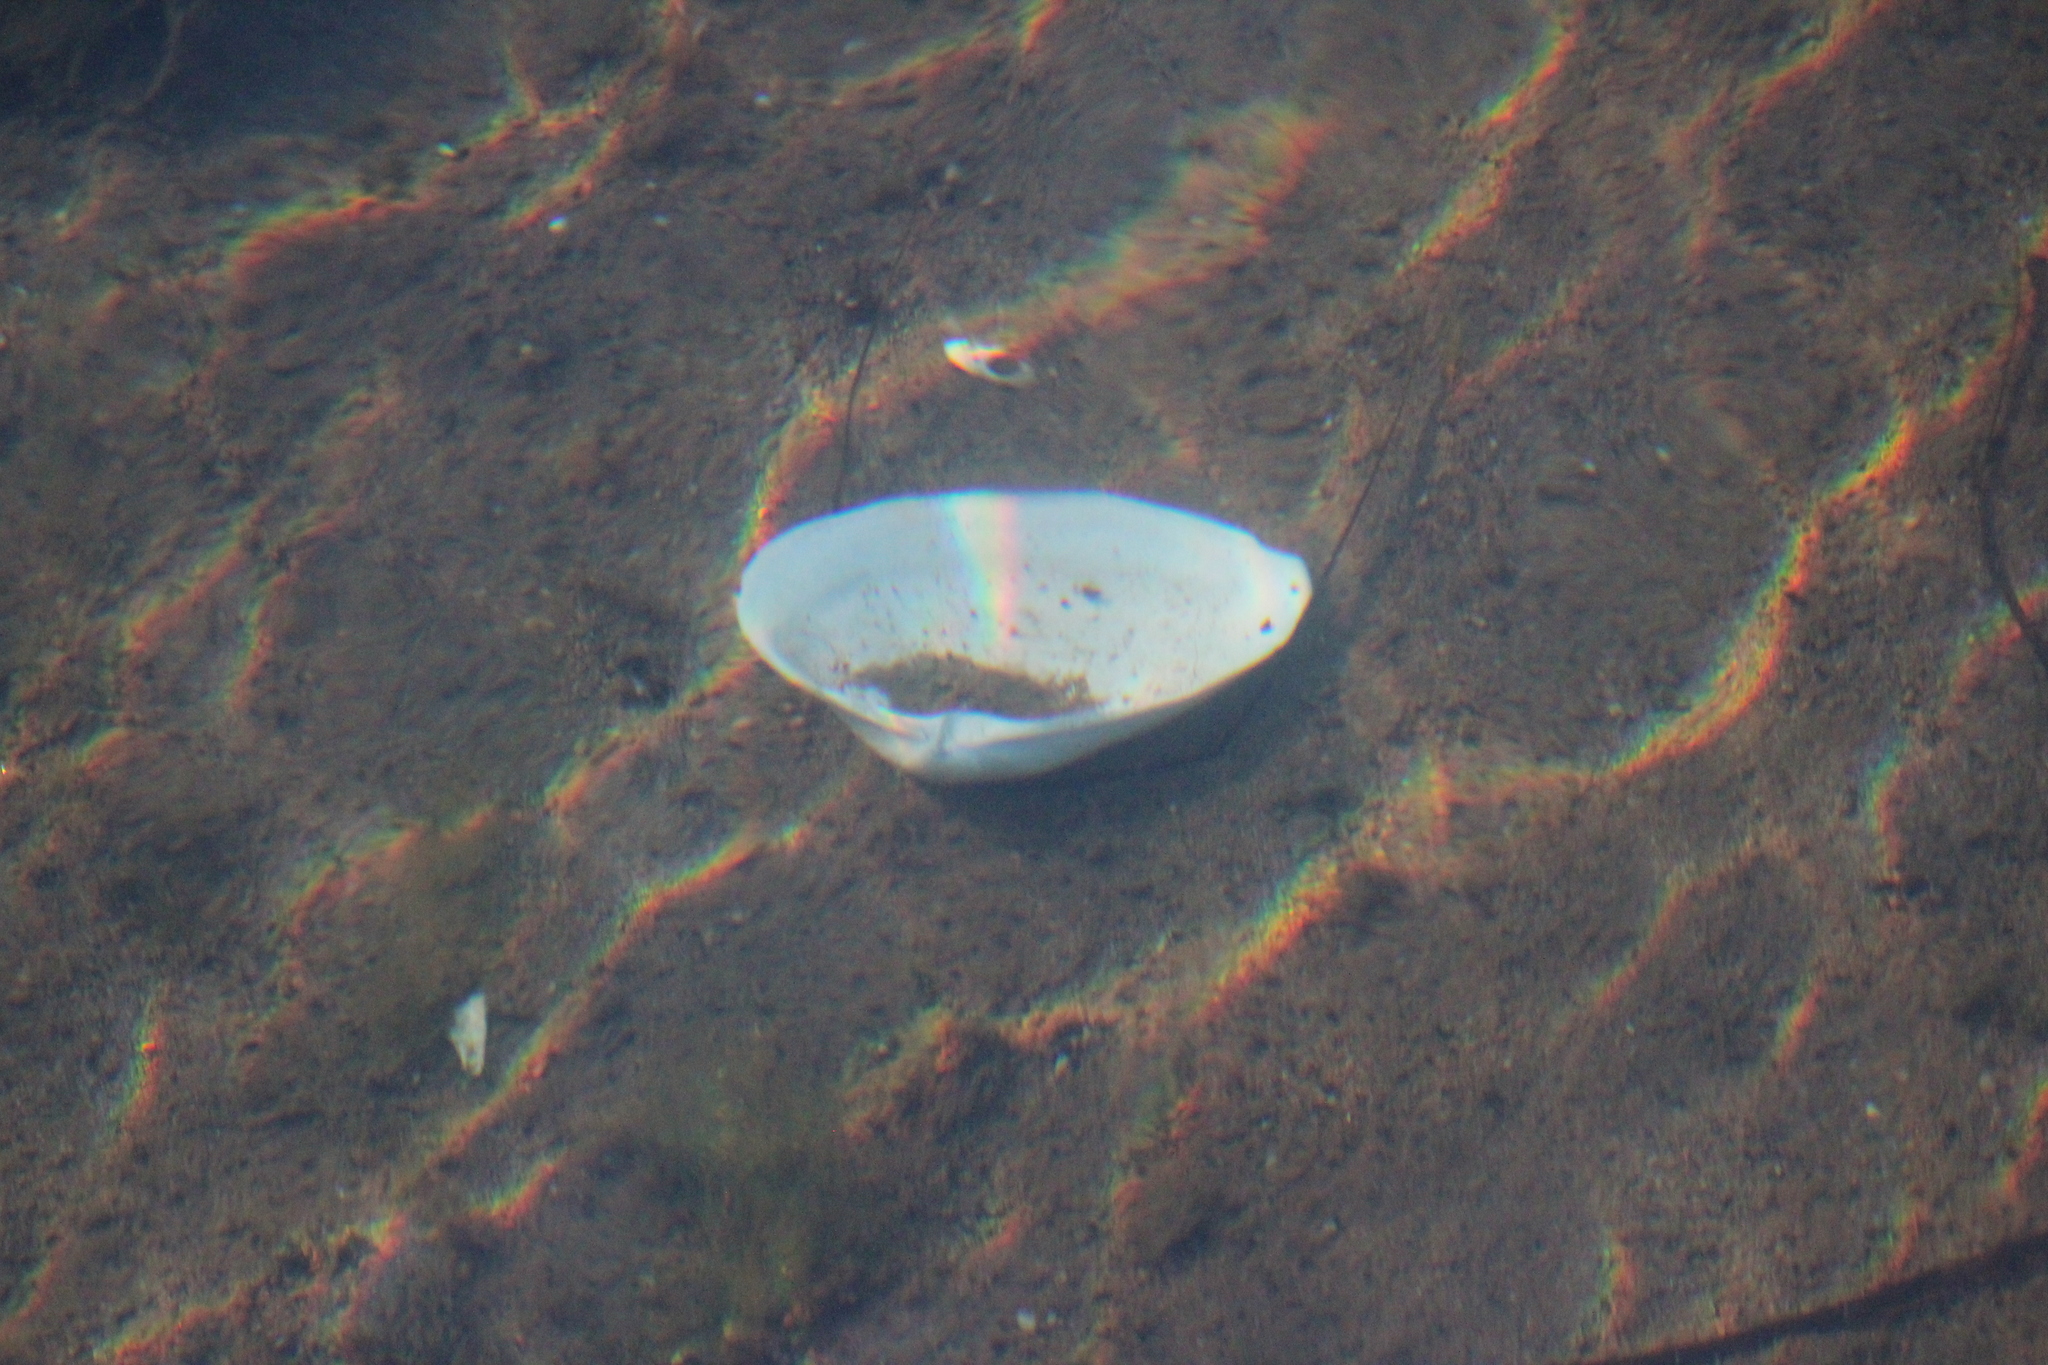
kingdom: Animalia
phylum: Mollusca
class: Bivalvia
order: Venerida
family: Mactridae
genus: Spisula
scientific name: Spisula solidissima
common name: Atlantic surf clam
